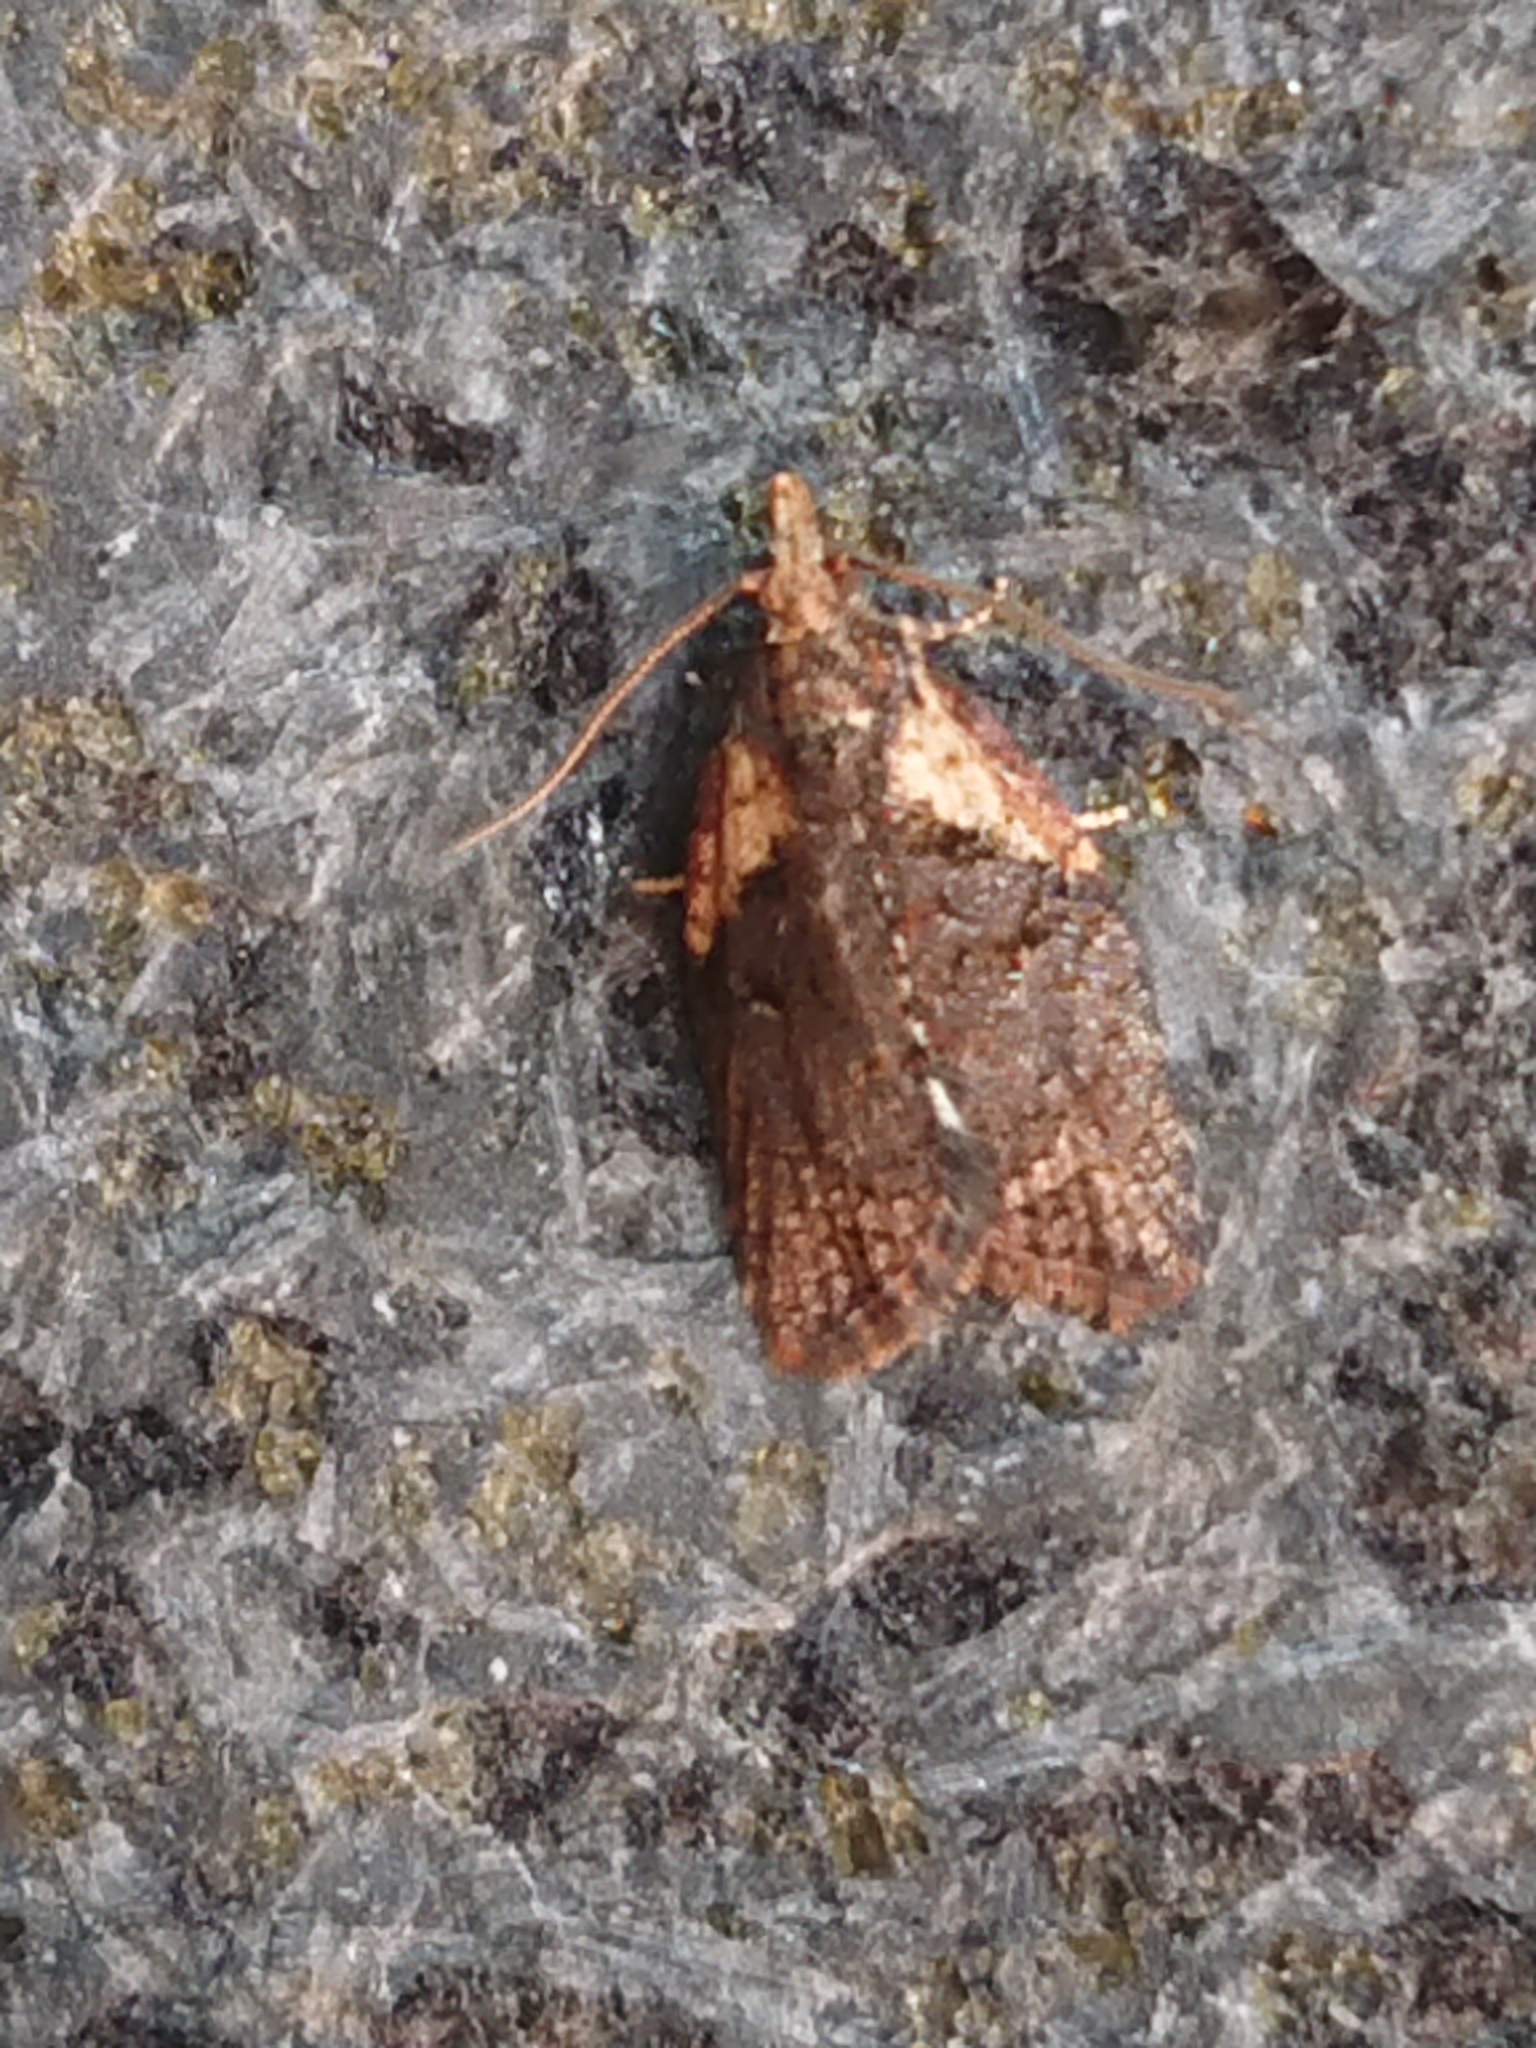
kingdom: Animalia
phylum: Arthropoda
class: Insecta
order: Lepidoptera
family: Tortricidae
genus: Capua
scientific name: Capua intractana
